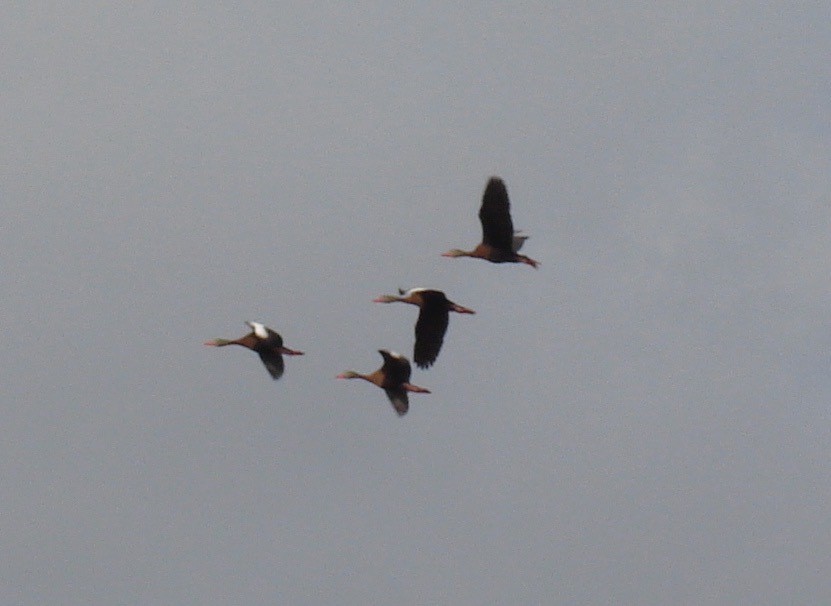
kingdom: Animalia
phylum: Chordata
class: Aves
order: Anseriformes
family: Anatidae
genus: Dendrocygna
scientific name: Dendrocygna autumnalis
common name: Black-bellied whistling duck
